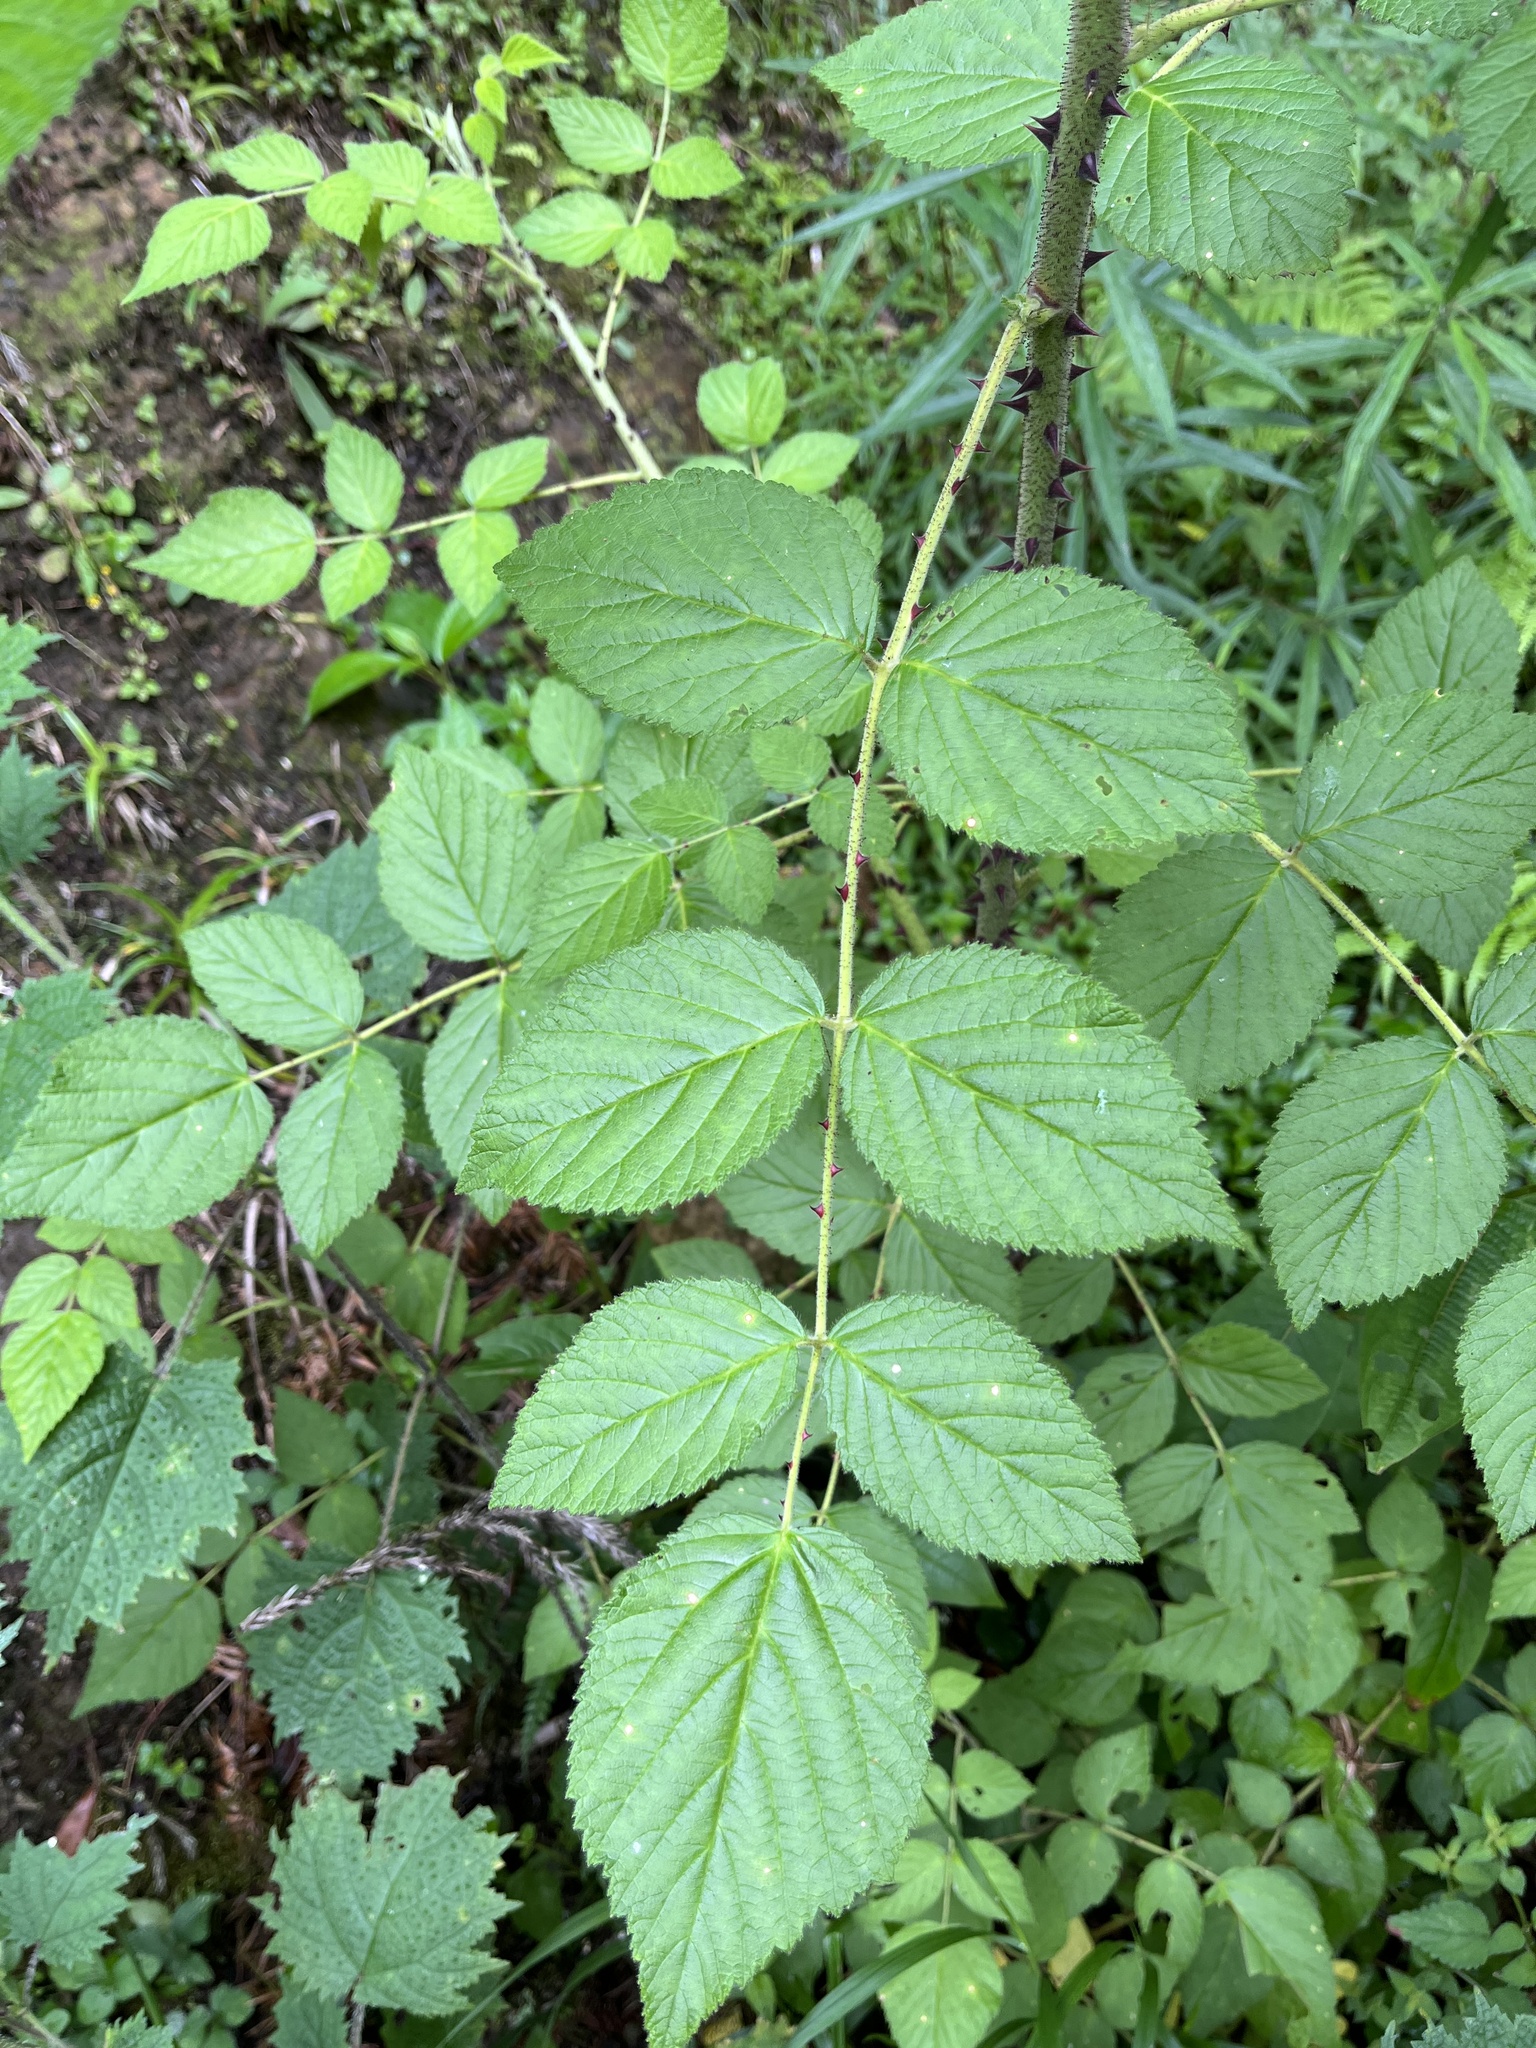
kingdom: Plantae
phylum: Tracheophyta
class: Magnoliopsida
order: Rosales
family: Rosaceae
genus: Rubus
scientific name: Rubus parviaraliifolius
